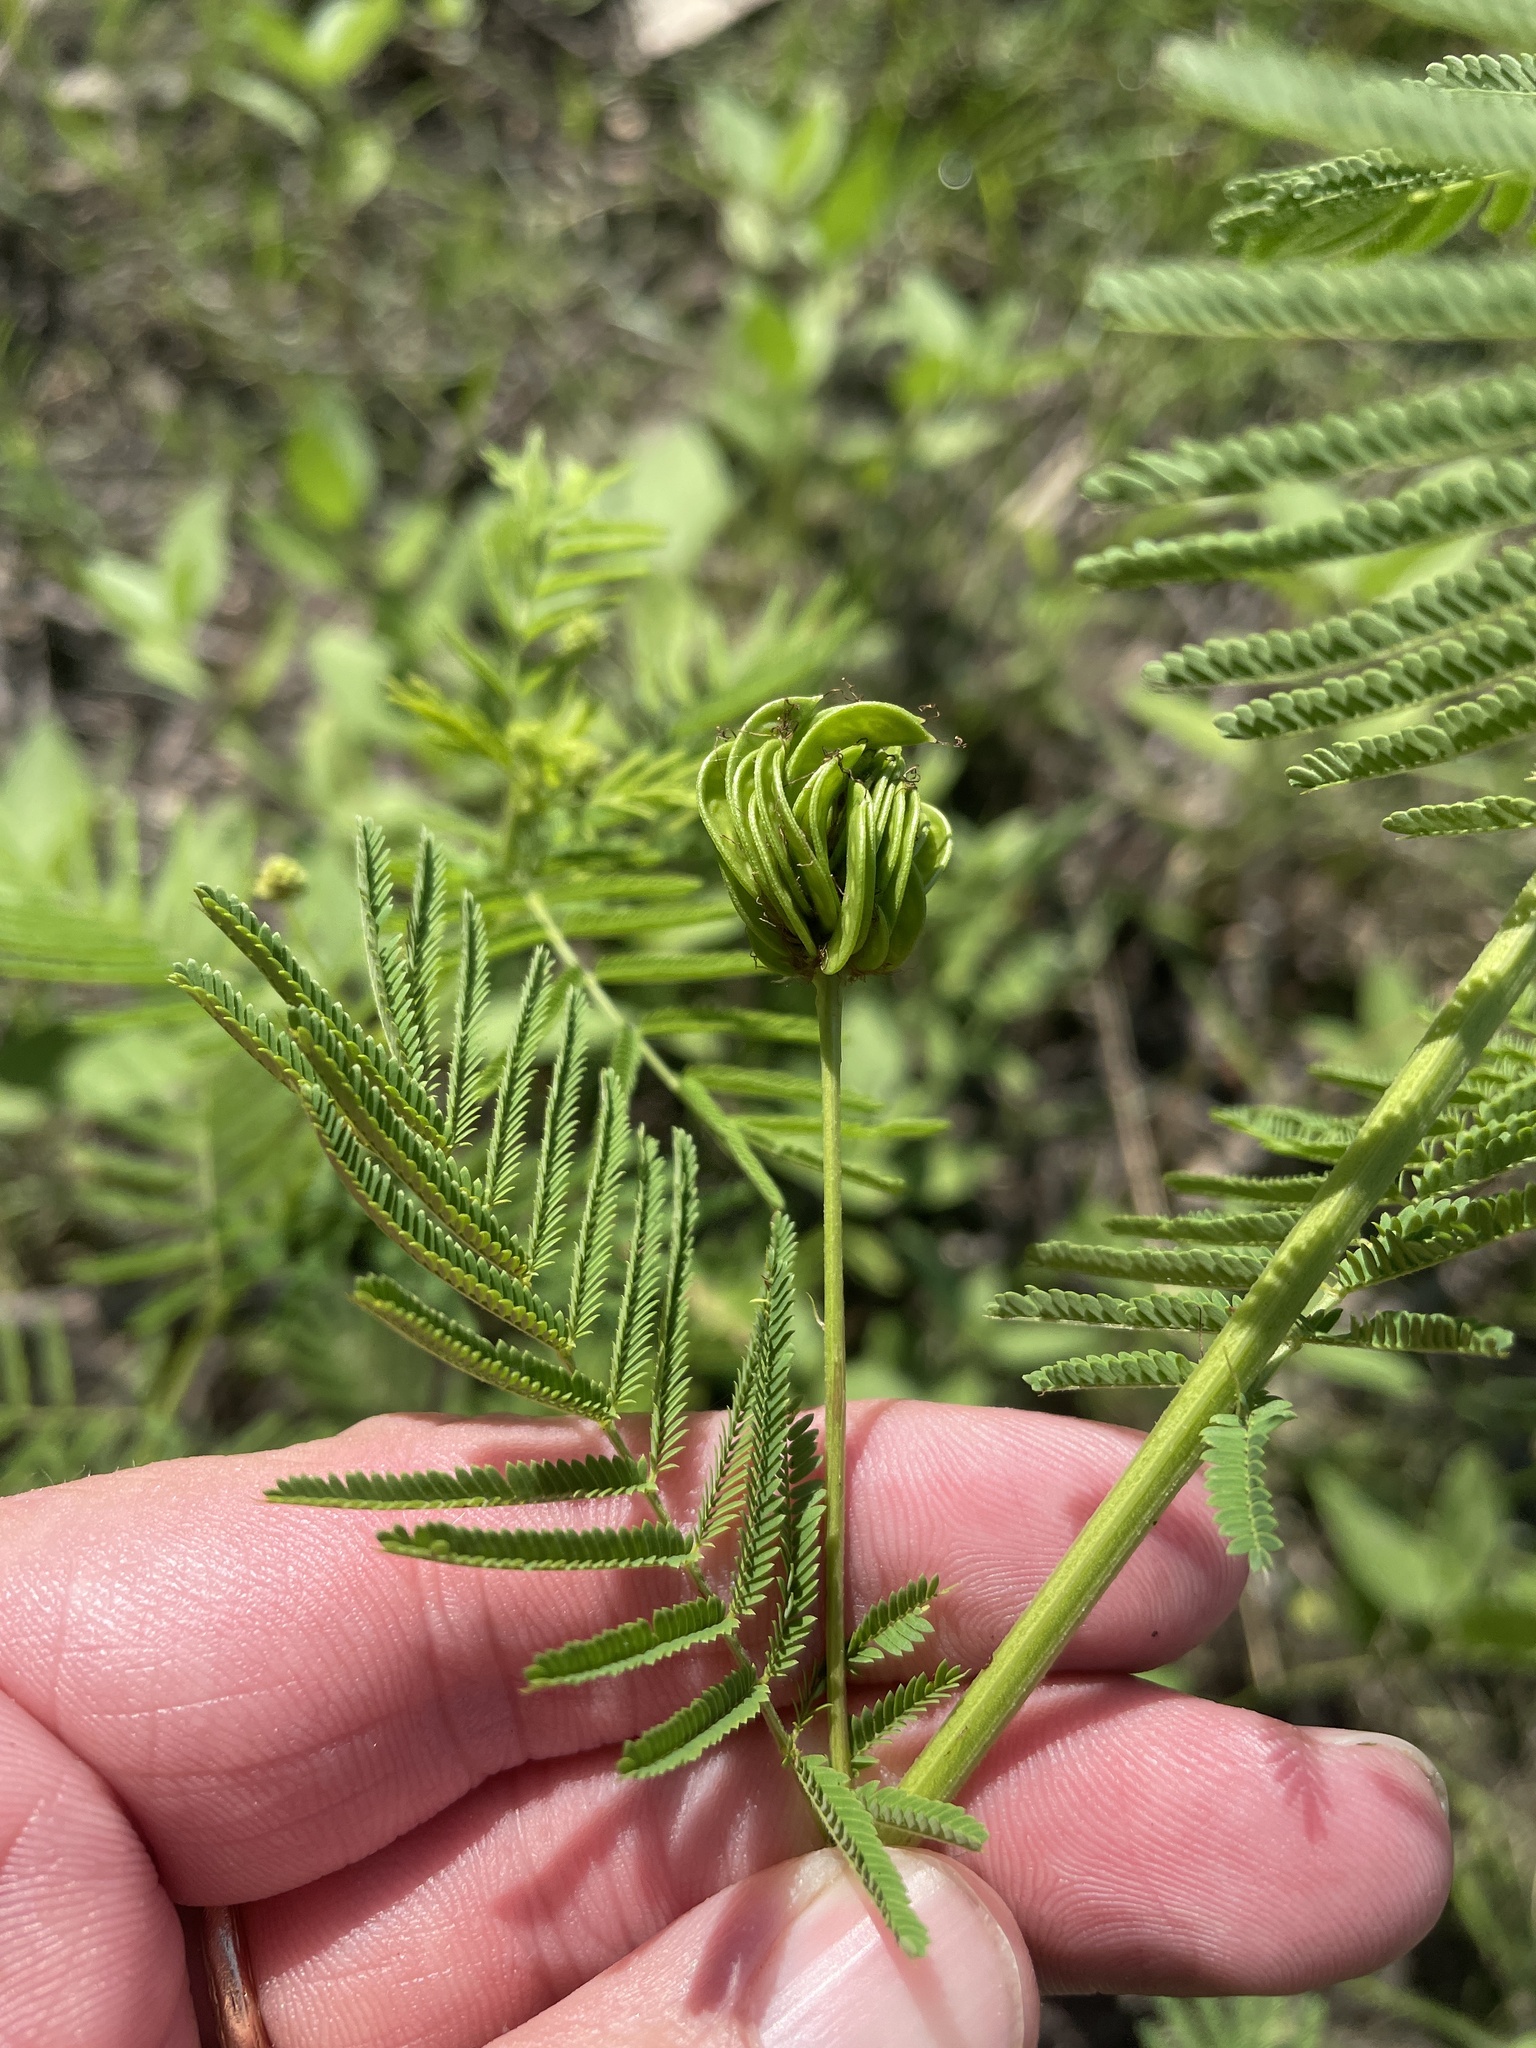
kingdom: Plantae
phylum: Tracheophyta
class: Magnoliopsida
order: Fabales
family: Fabaceae
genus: Desmanthus
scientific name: Desmanthus illinoensis
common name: Illinois bundle-flower
